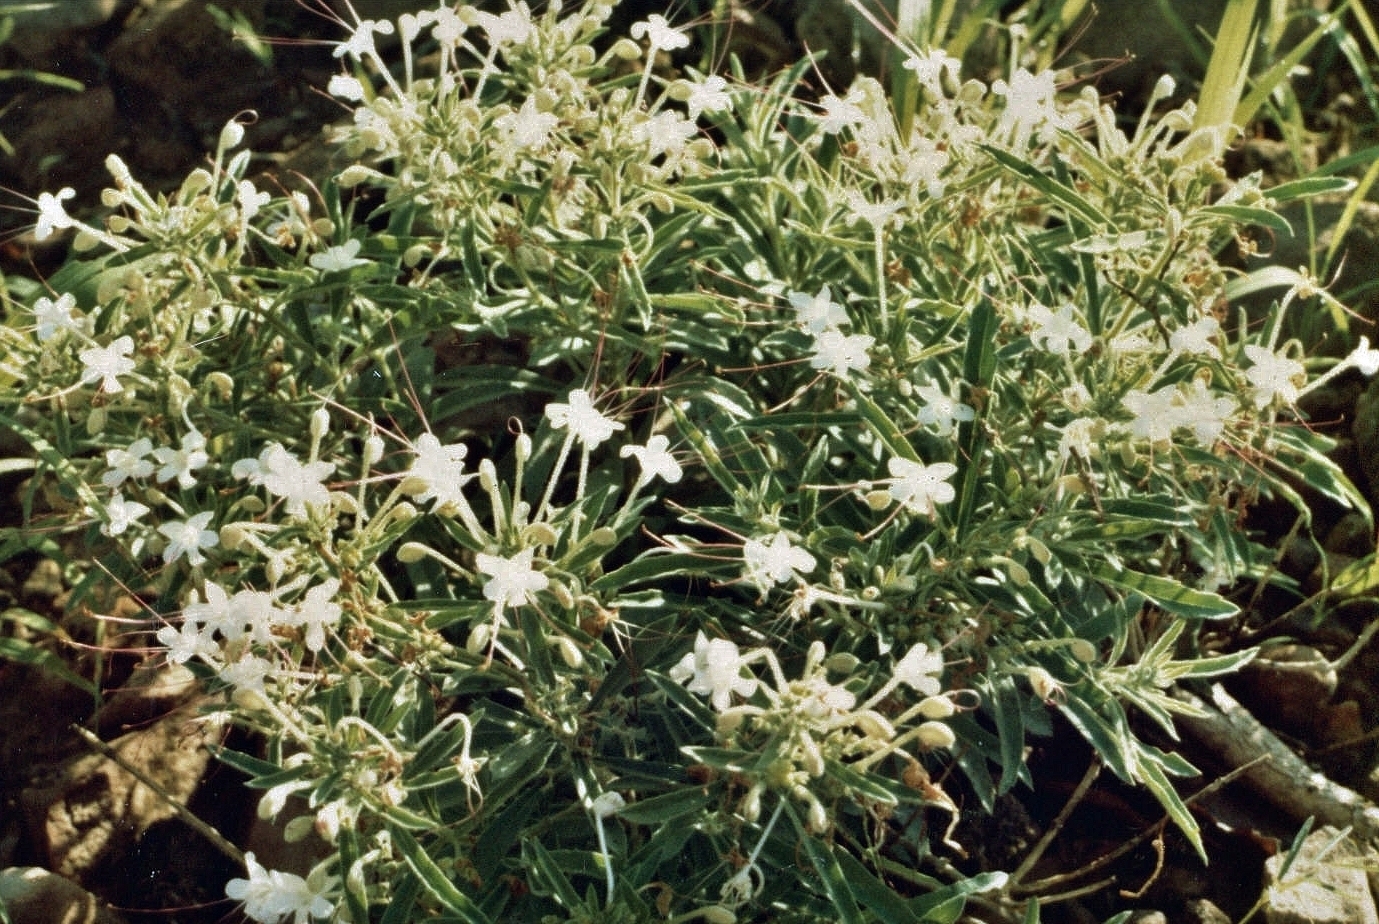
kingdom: Plantae
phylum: Tracheophyta
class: Magnoliopsida
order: Lamiales
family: Lamiaceae
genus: Clerodendrum
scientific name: Clerodendrum ternatum
